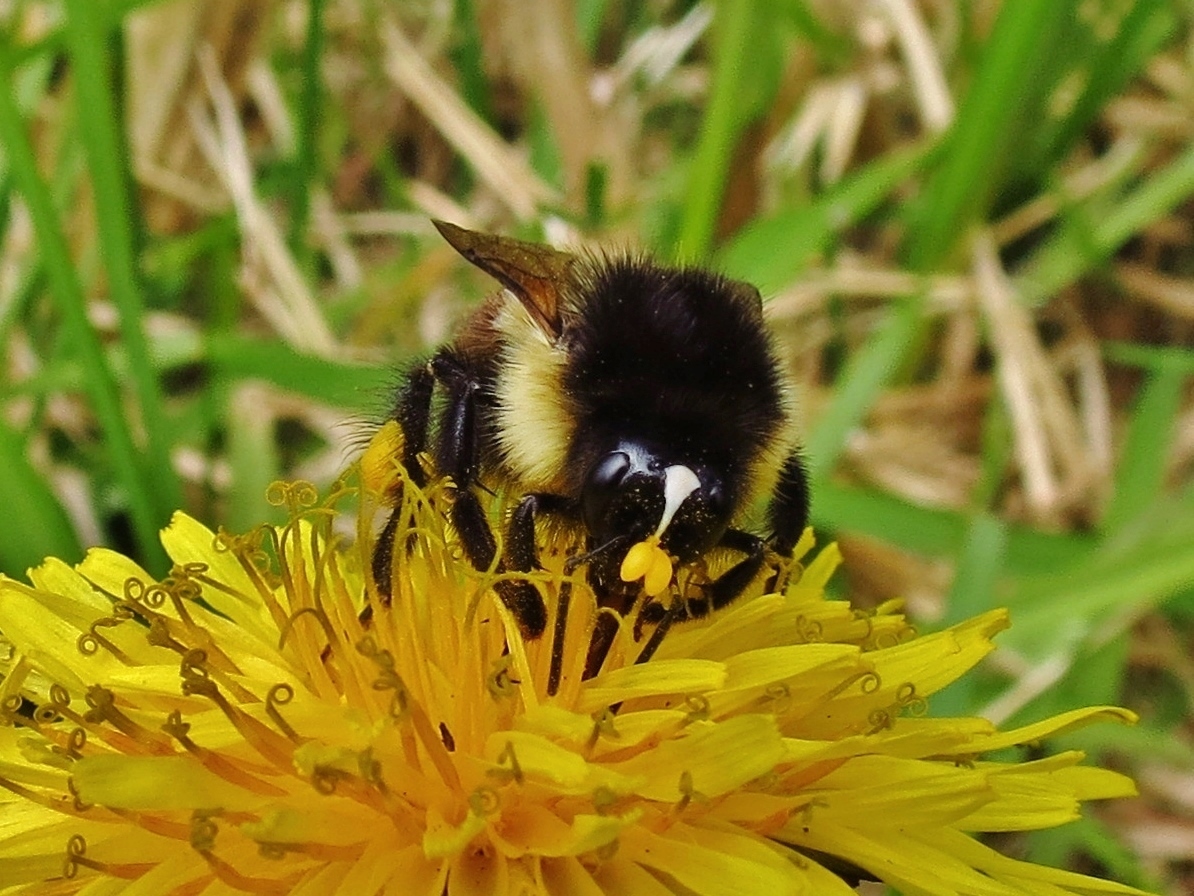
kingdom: Animalia
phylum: Arthropoda
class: Insecta
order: Hymenoptera
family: Apidae
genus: Bombus
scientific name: Bombus ephippiatus
